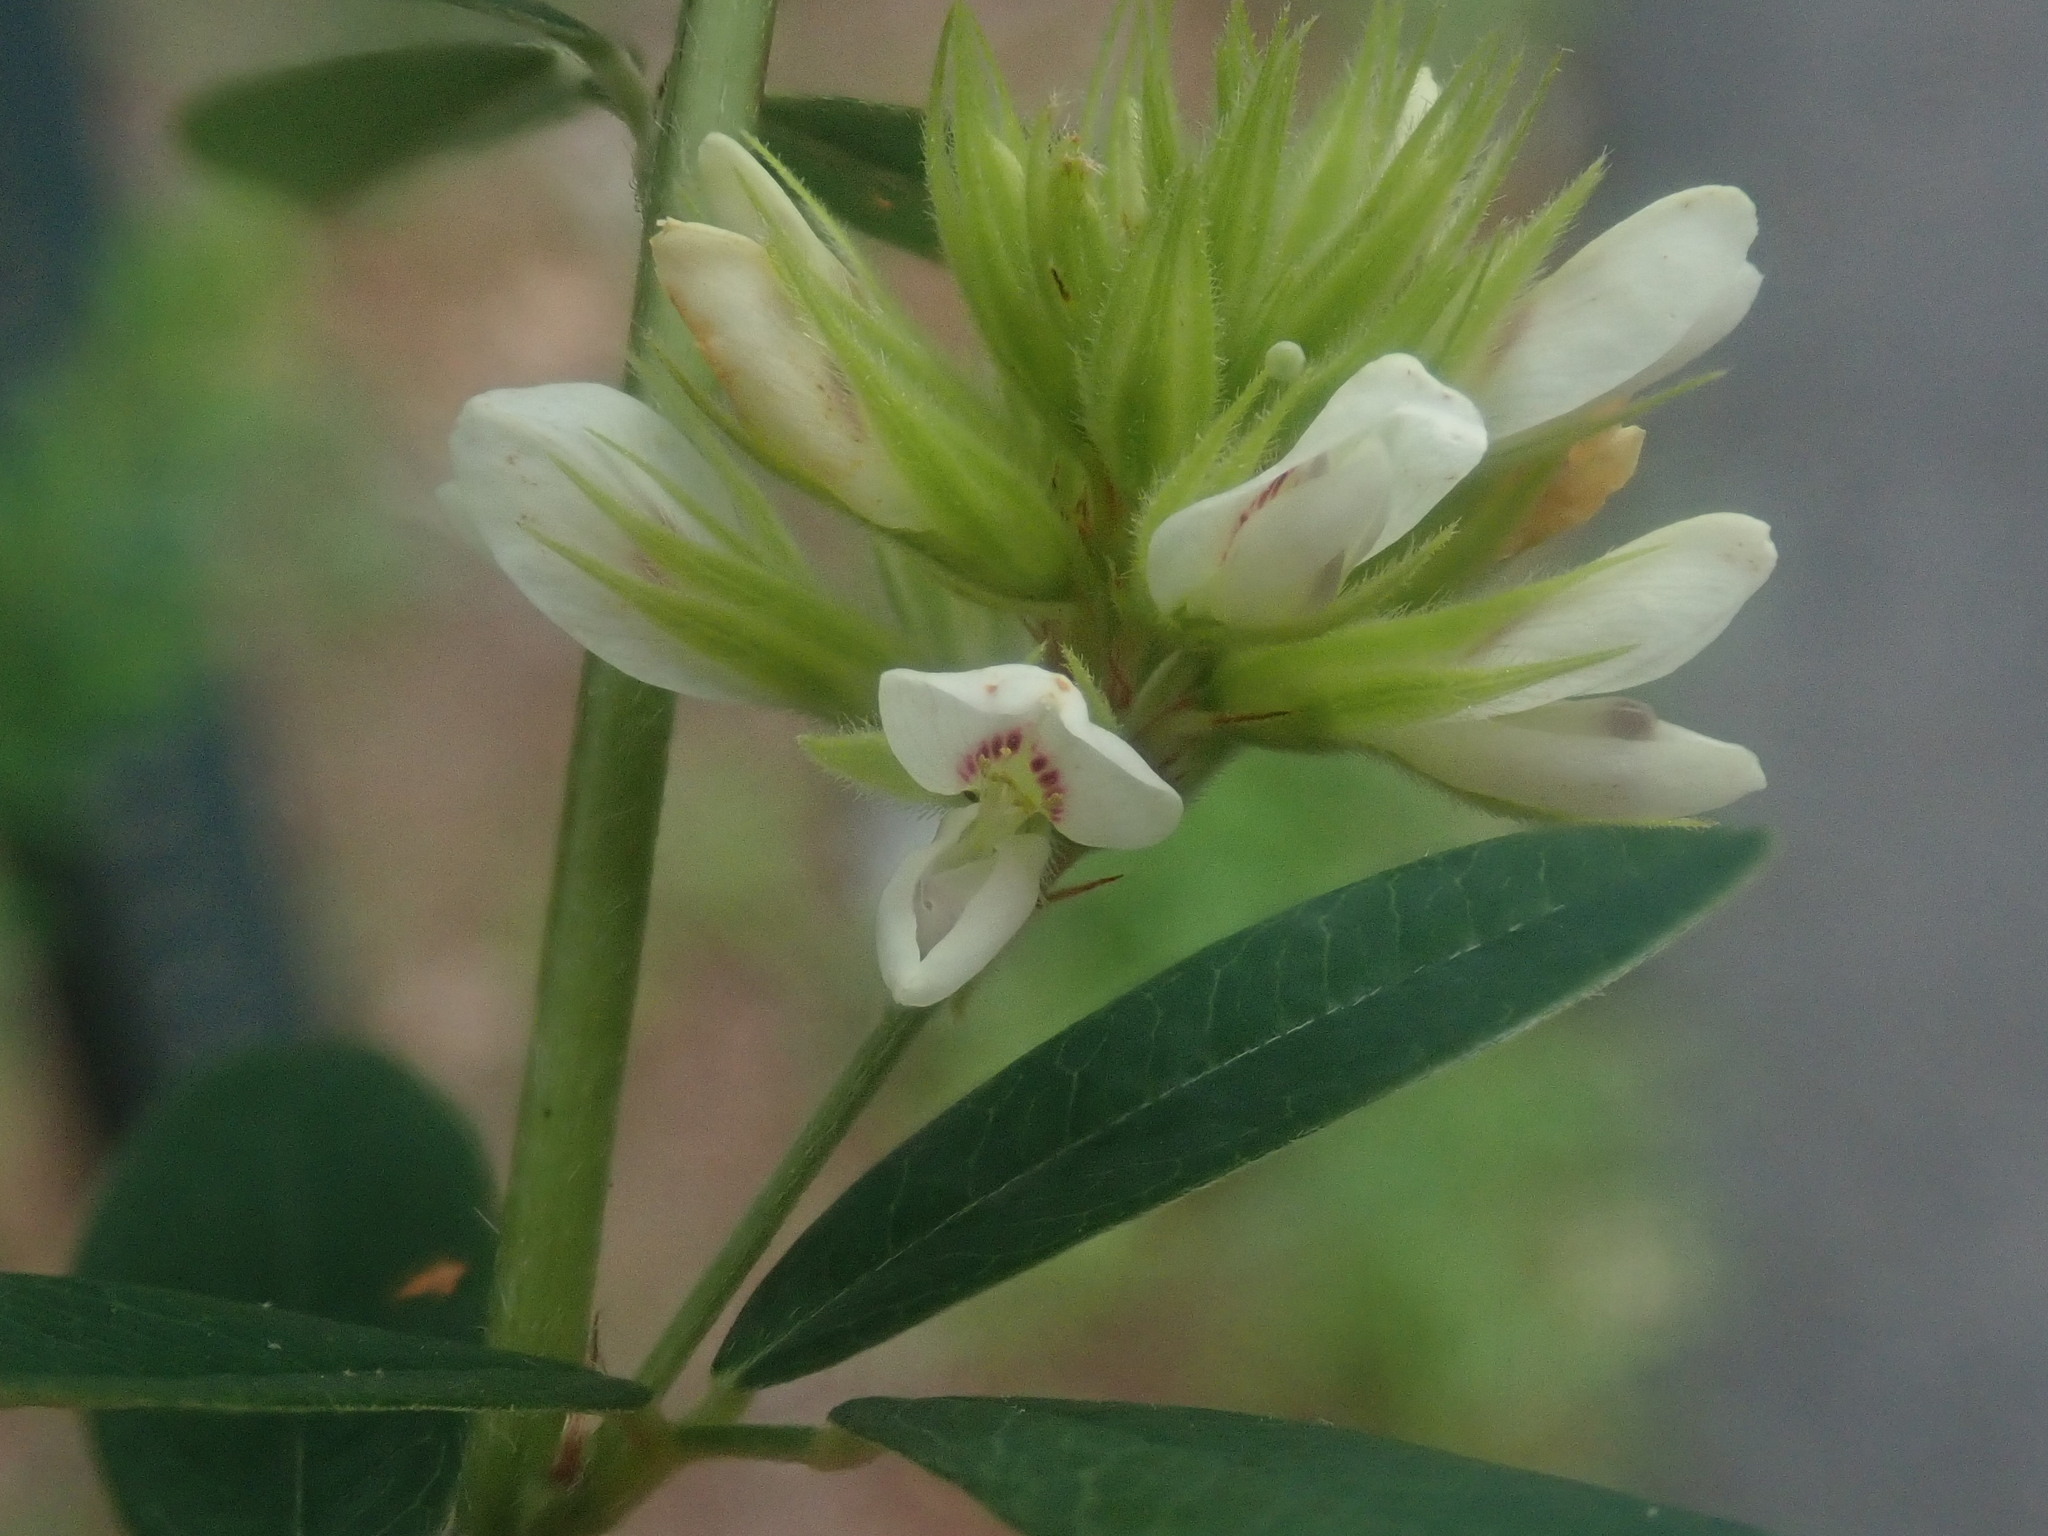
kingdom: Plantae
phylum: Tracheophyta
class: Magnoliopsida
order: Fabales
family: Fabaceae
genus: Lespedeza
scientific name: Lespedeza capitata
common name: Dusty clover
